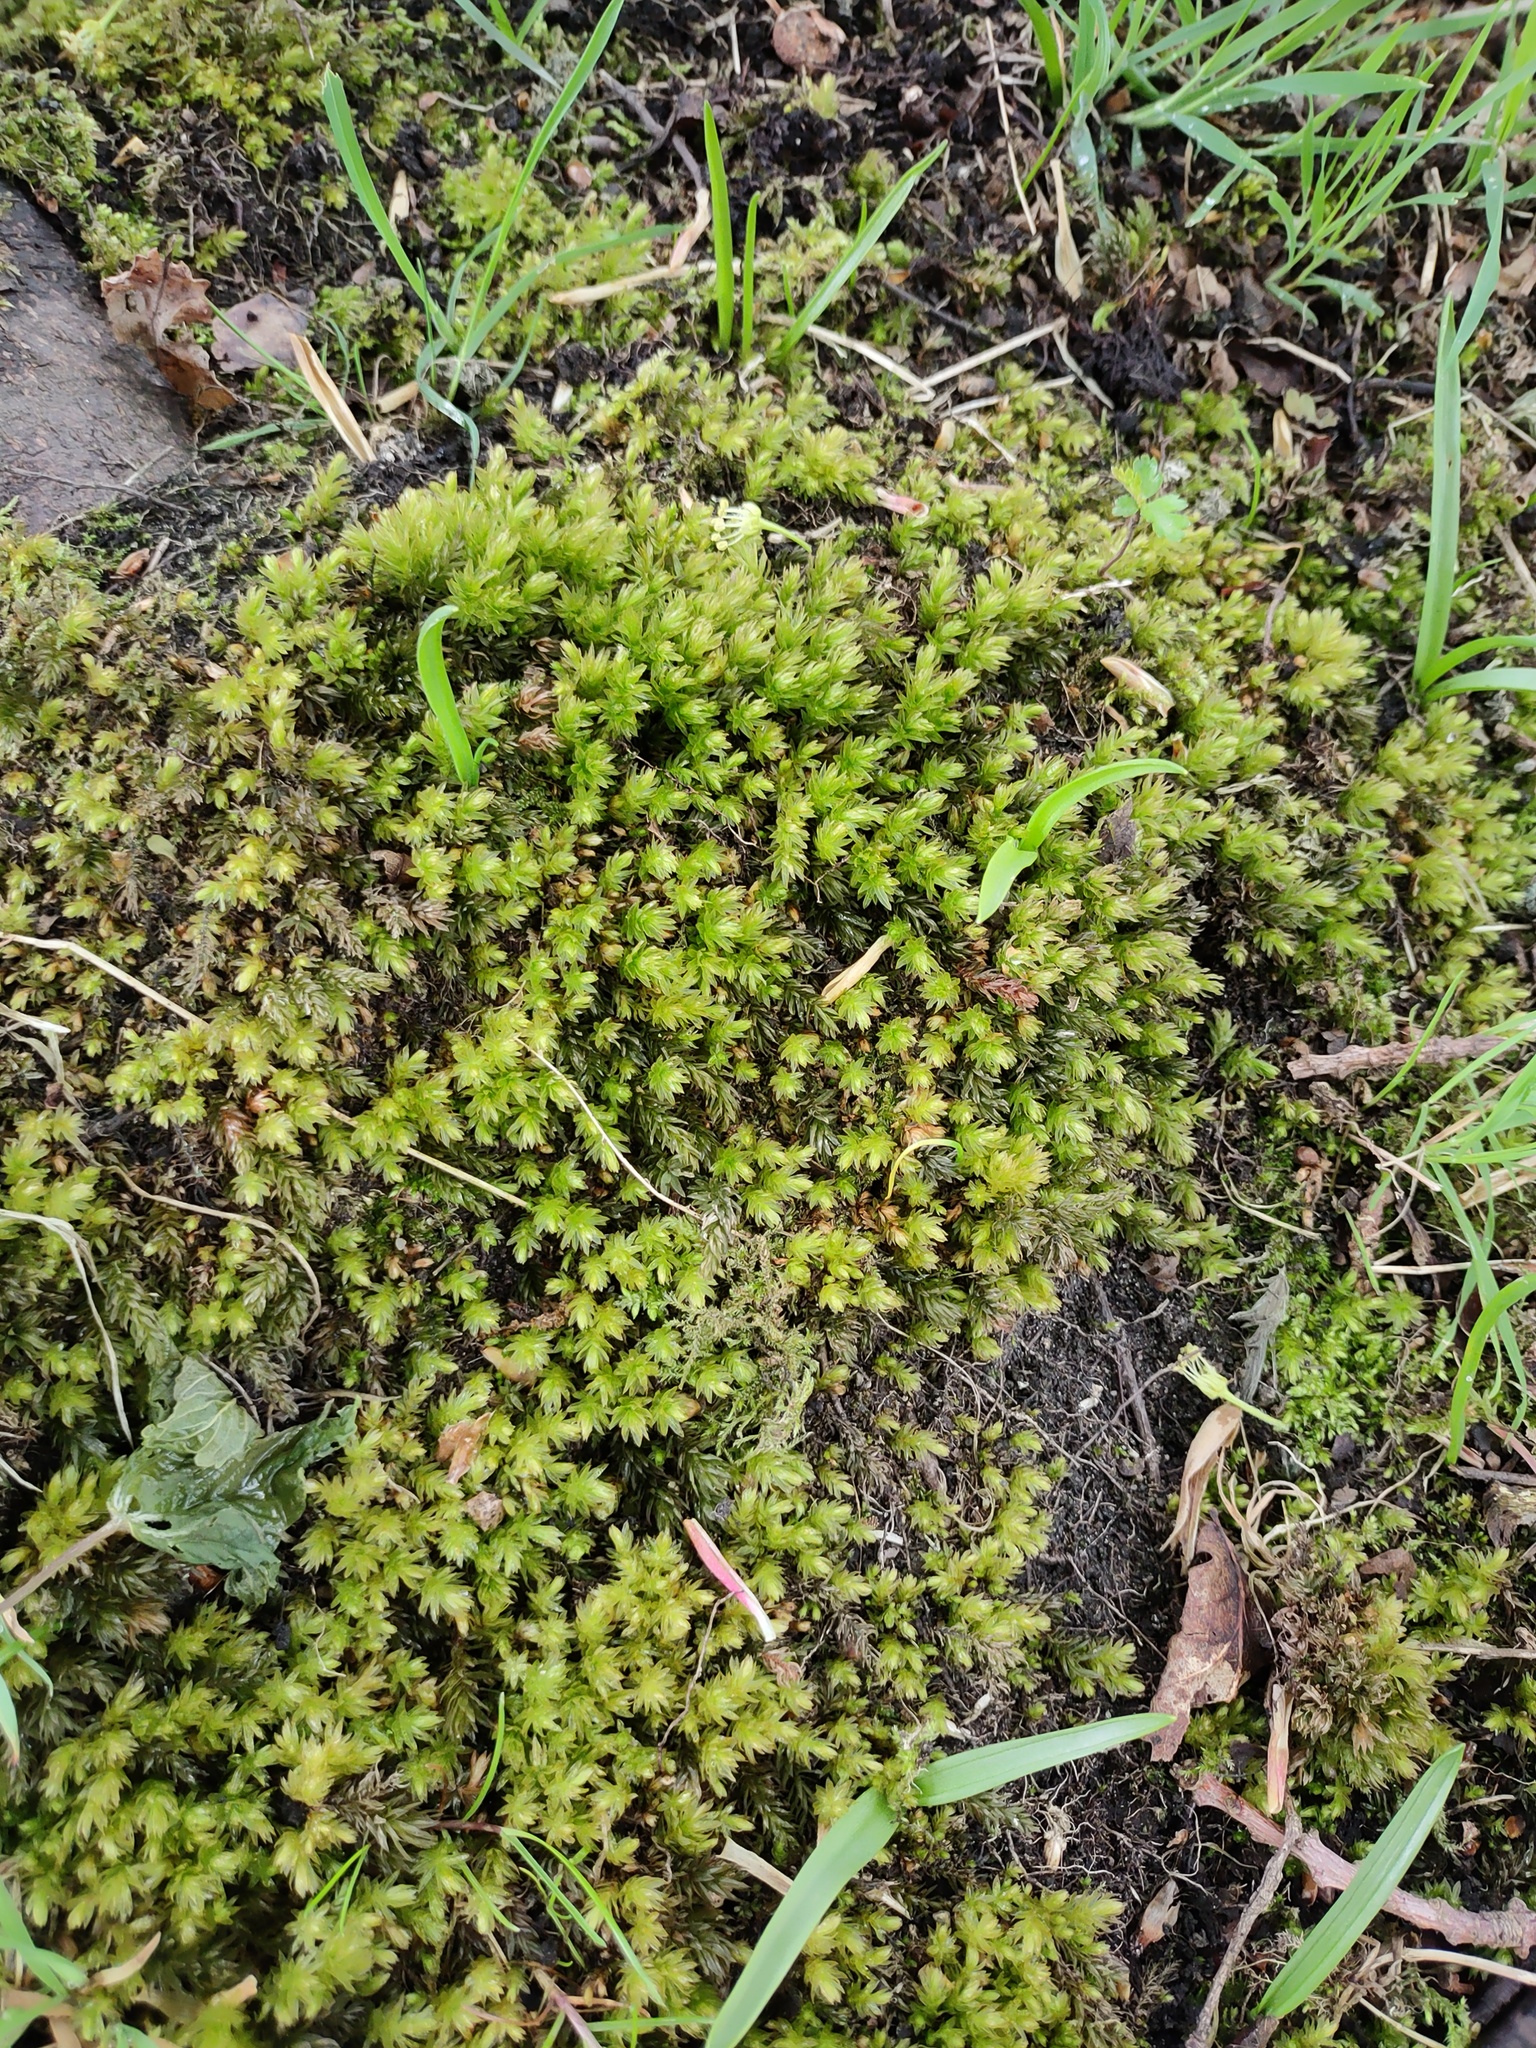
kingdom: Plantae
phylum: Bryophyta
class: Bryopsida
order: Bryales
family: Mniaceae
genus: Mnium
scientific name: Mnium hornum
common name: Swan's-neck leafy moss
